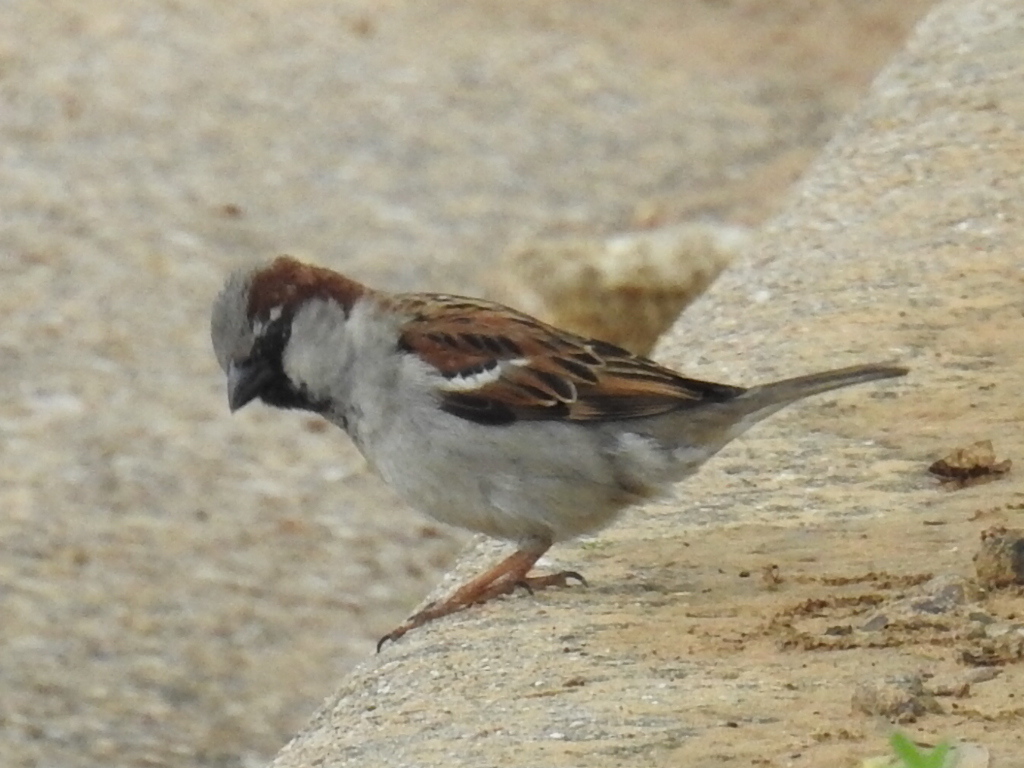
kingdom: Animalia
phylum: Chordata
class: Aves
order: Passeriformes
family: Passeridae
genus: Passer
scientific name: Passer domesticus
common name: House sparrow
